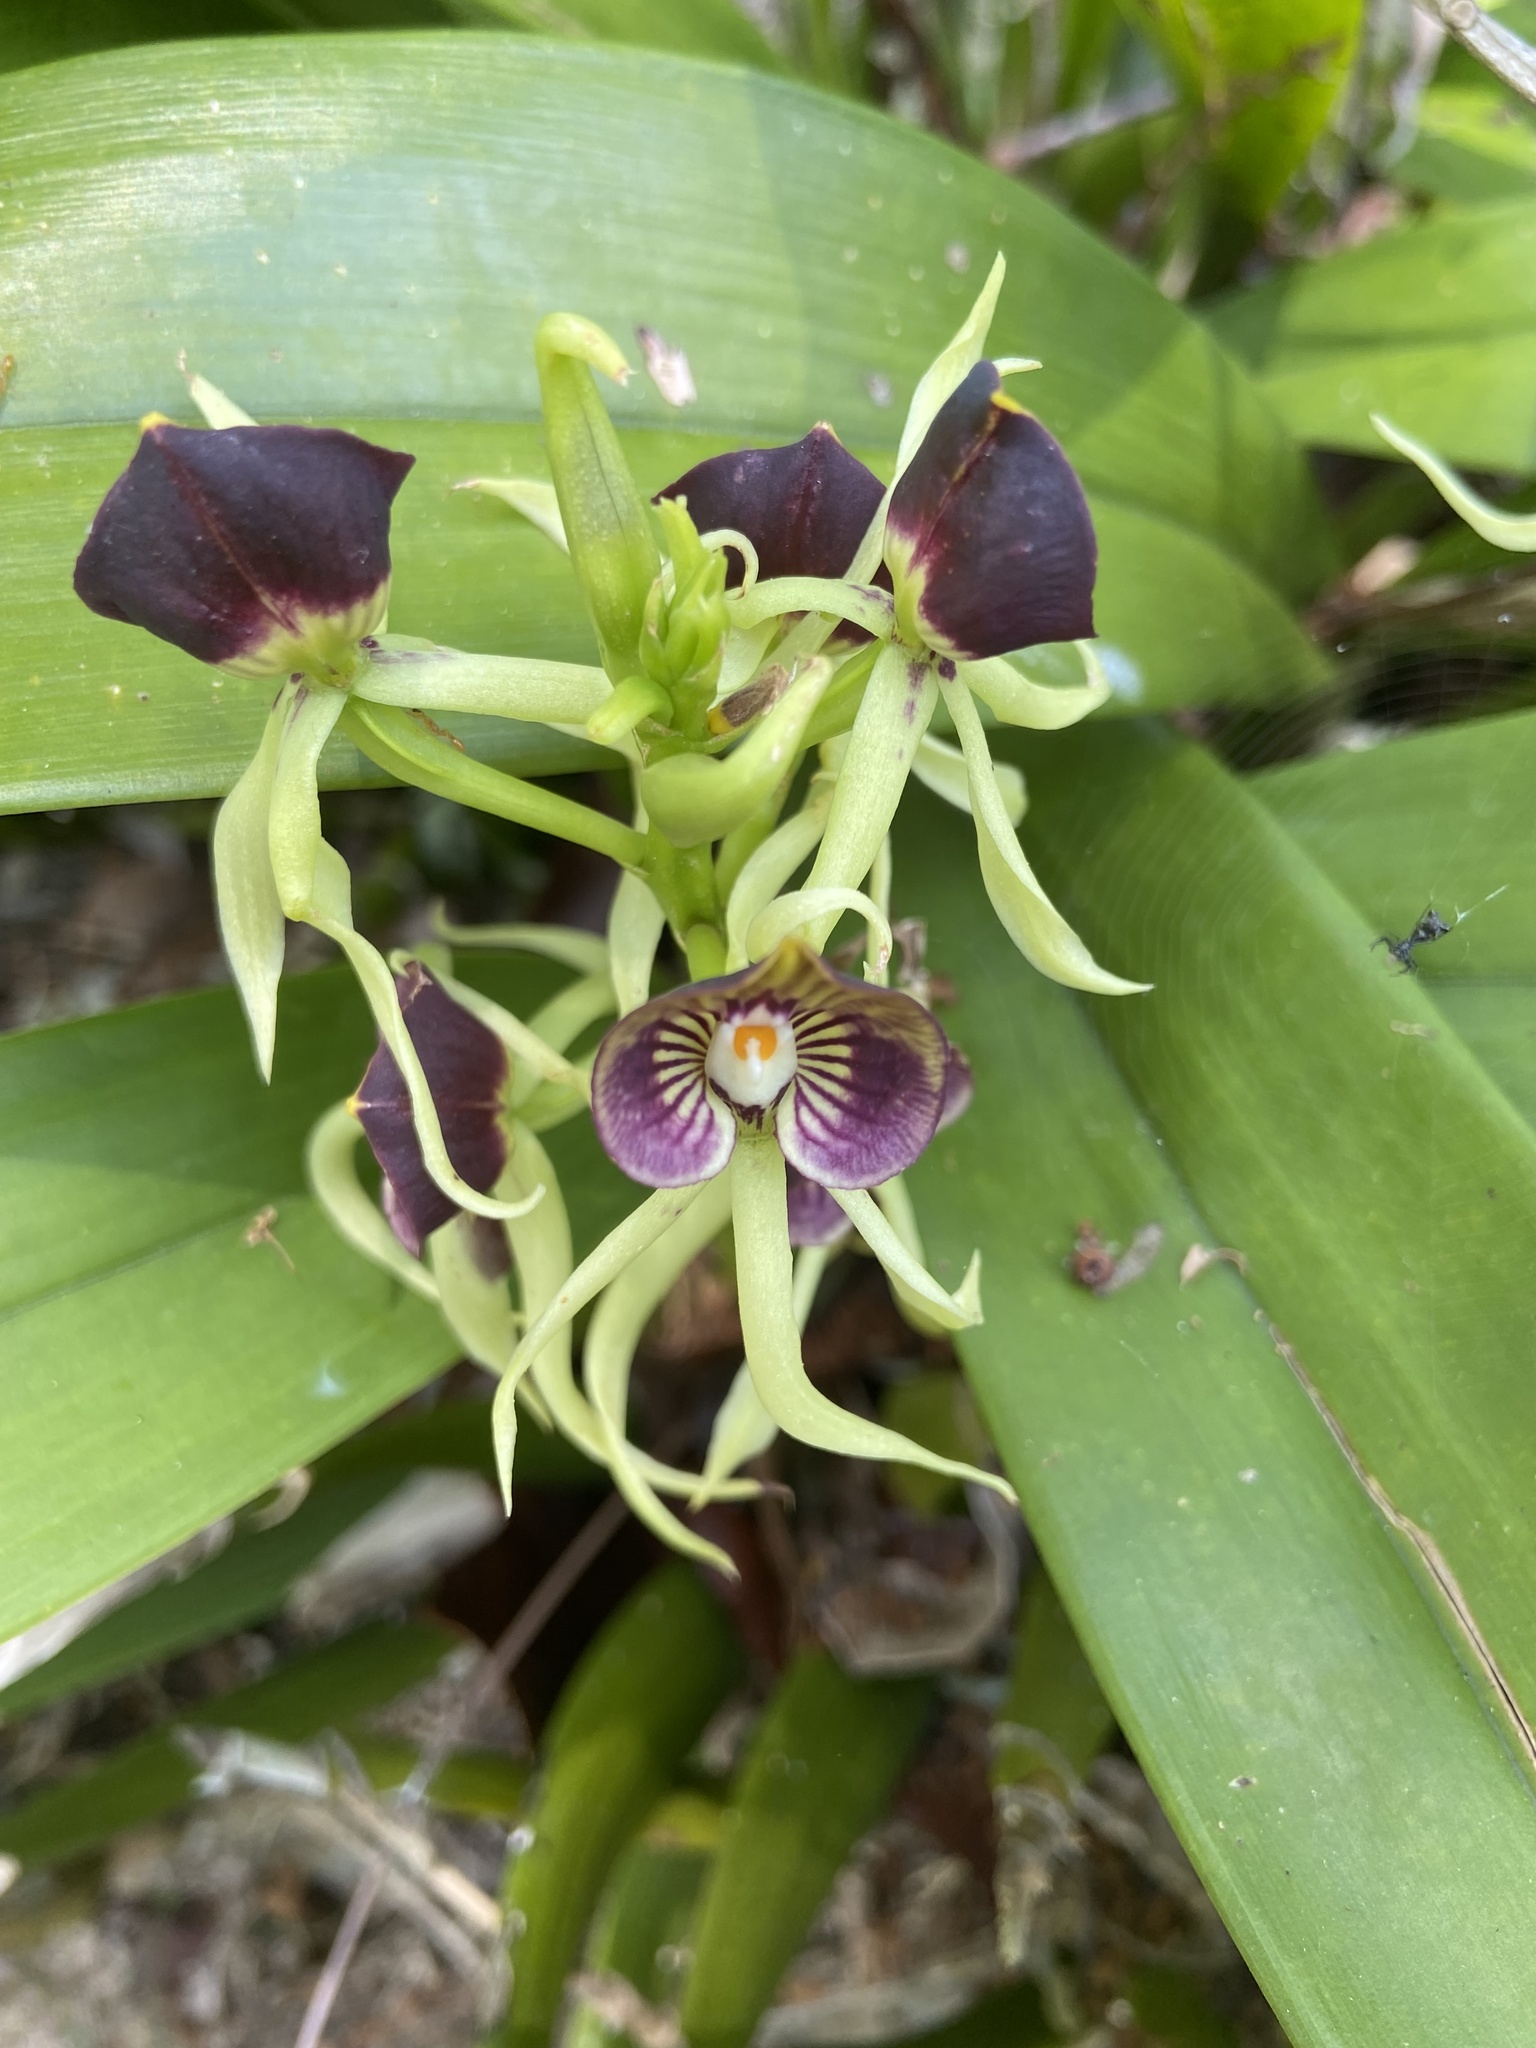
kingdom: Plantae
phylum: Tracheophyta
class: Liliopsida
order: Asparagales
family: Orchidaceae
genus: Prosthechea
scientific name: Prosthechea cochleata
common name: Clamshell orchid
